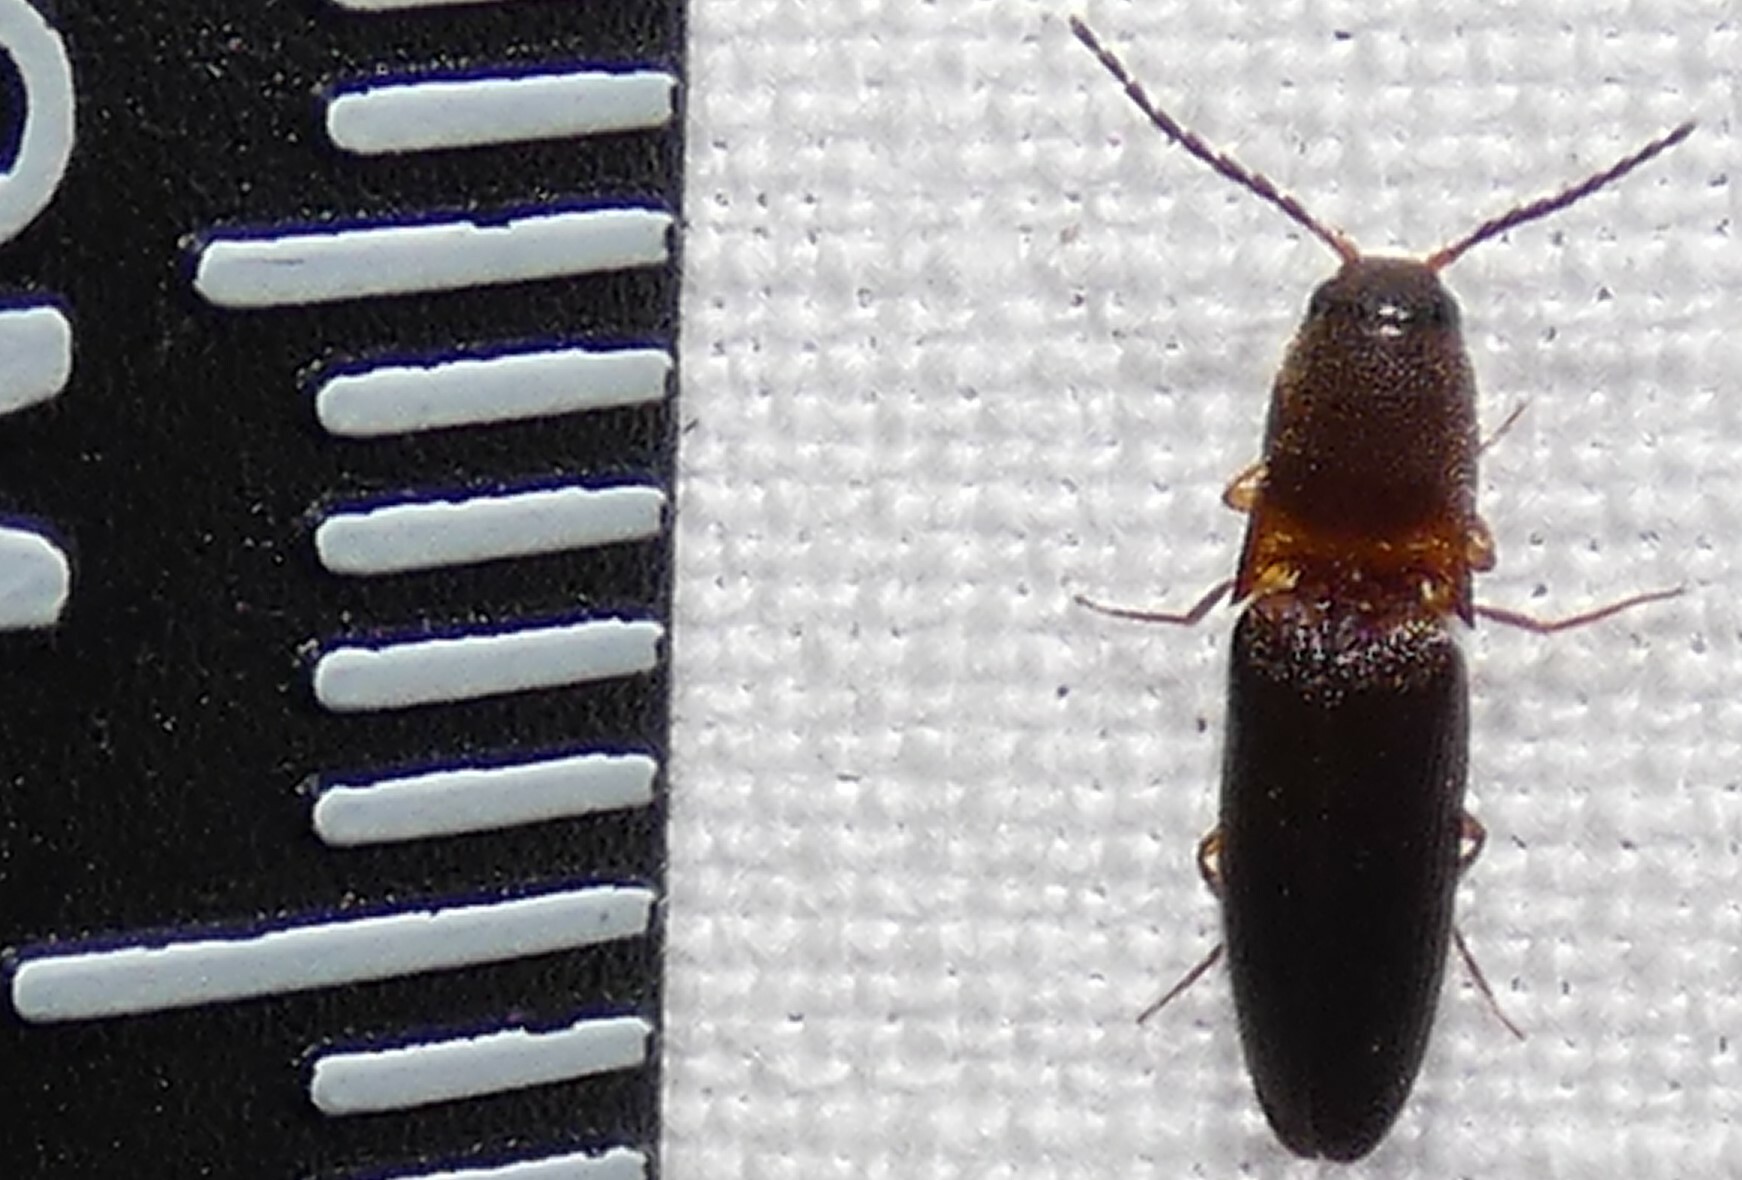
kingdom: Animalia
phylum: Arthropoda
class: Insecta
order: Coleoptera
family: Elateridae
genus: Megapenthes
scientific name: Megapenthes
